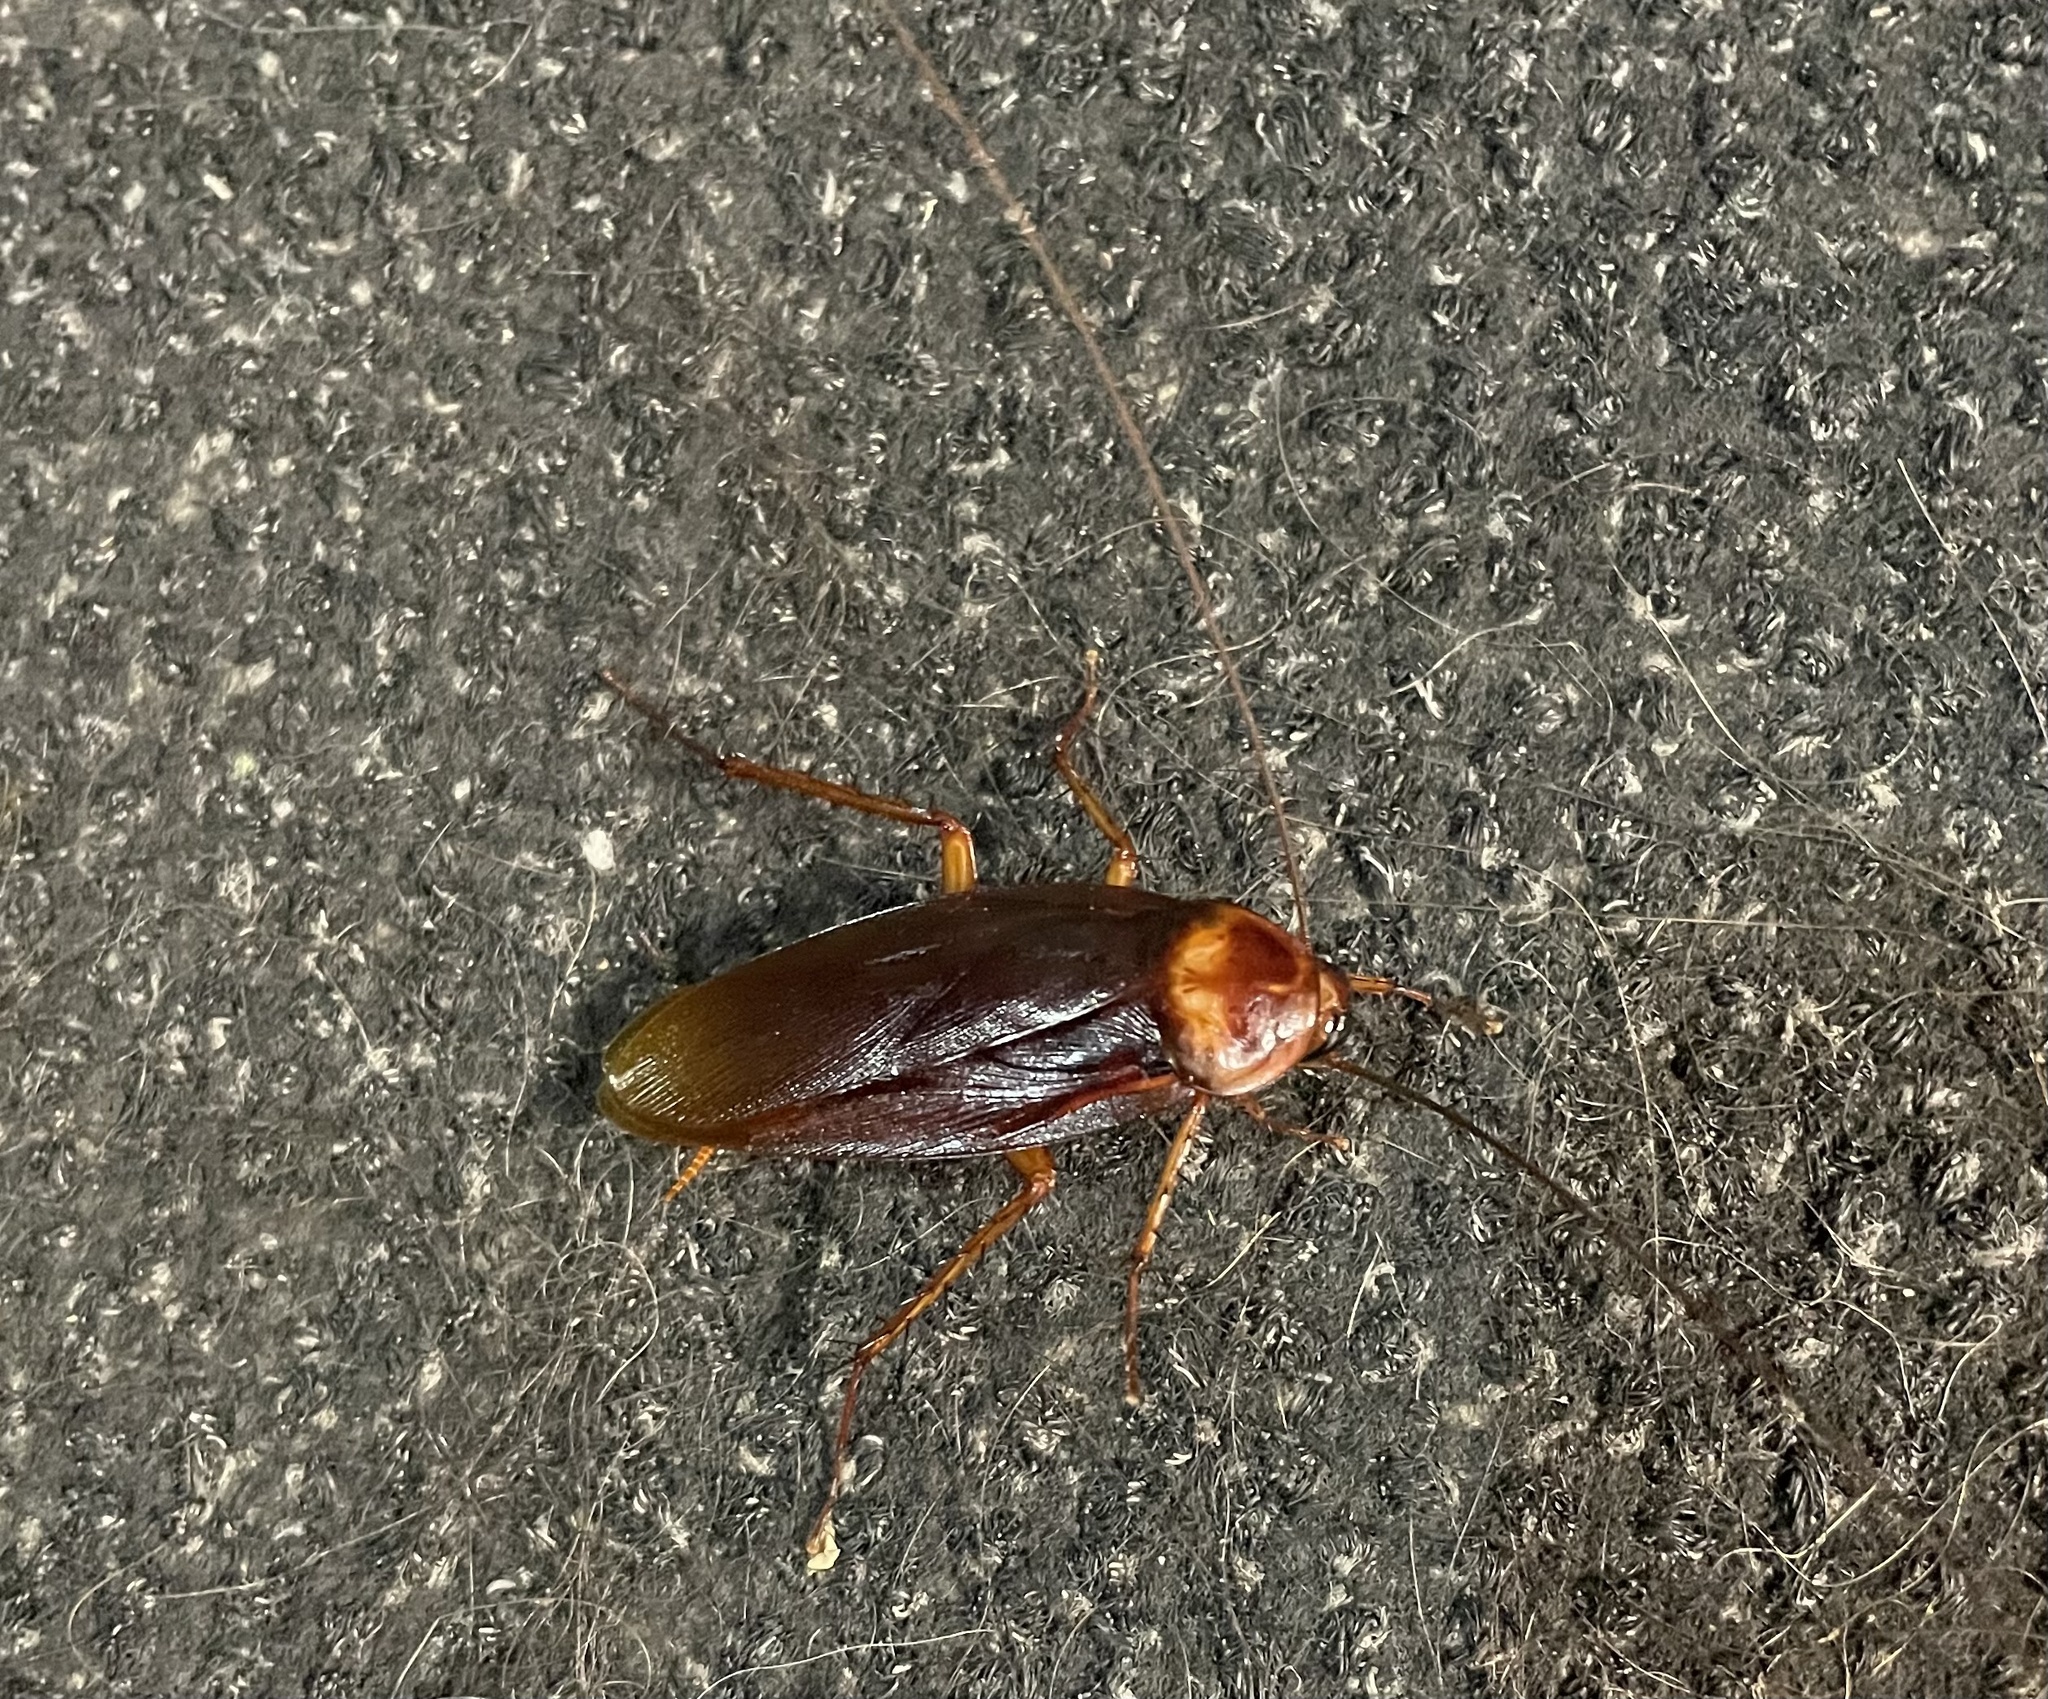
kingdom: Animalia
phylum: Arthropoda
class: Insecta
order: Blattodea
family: Blattidae
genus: Periplaneta
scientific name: Periplaneta americana
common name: American cockroach
